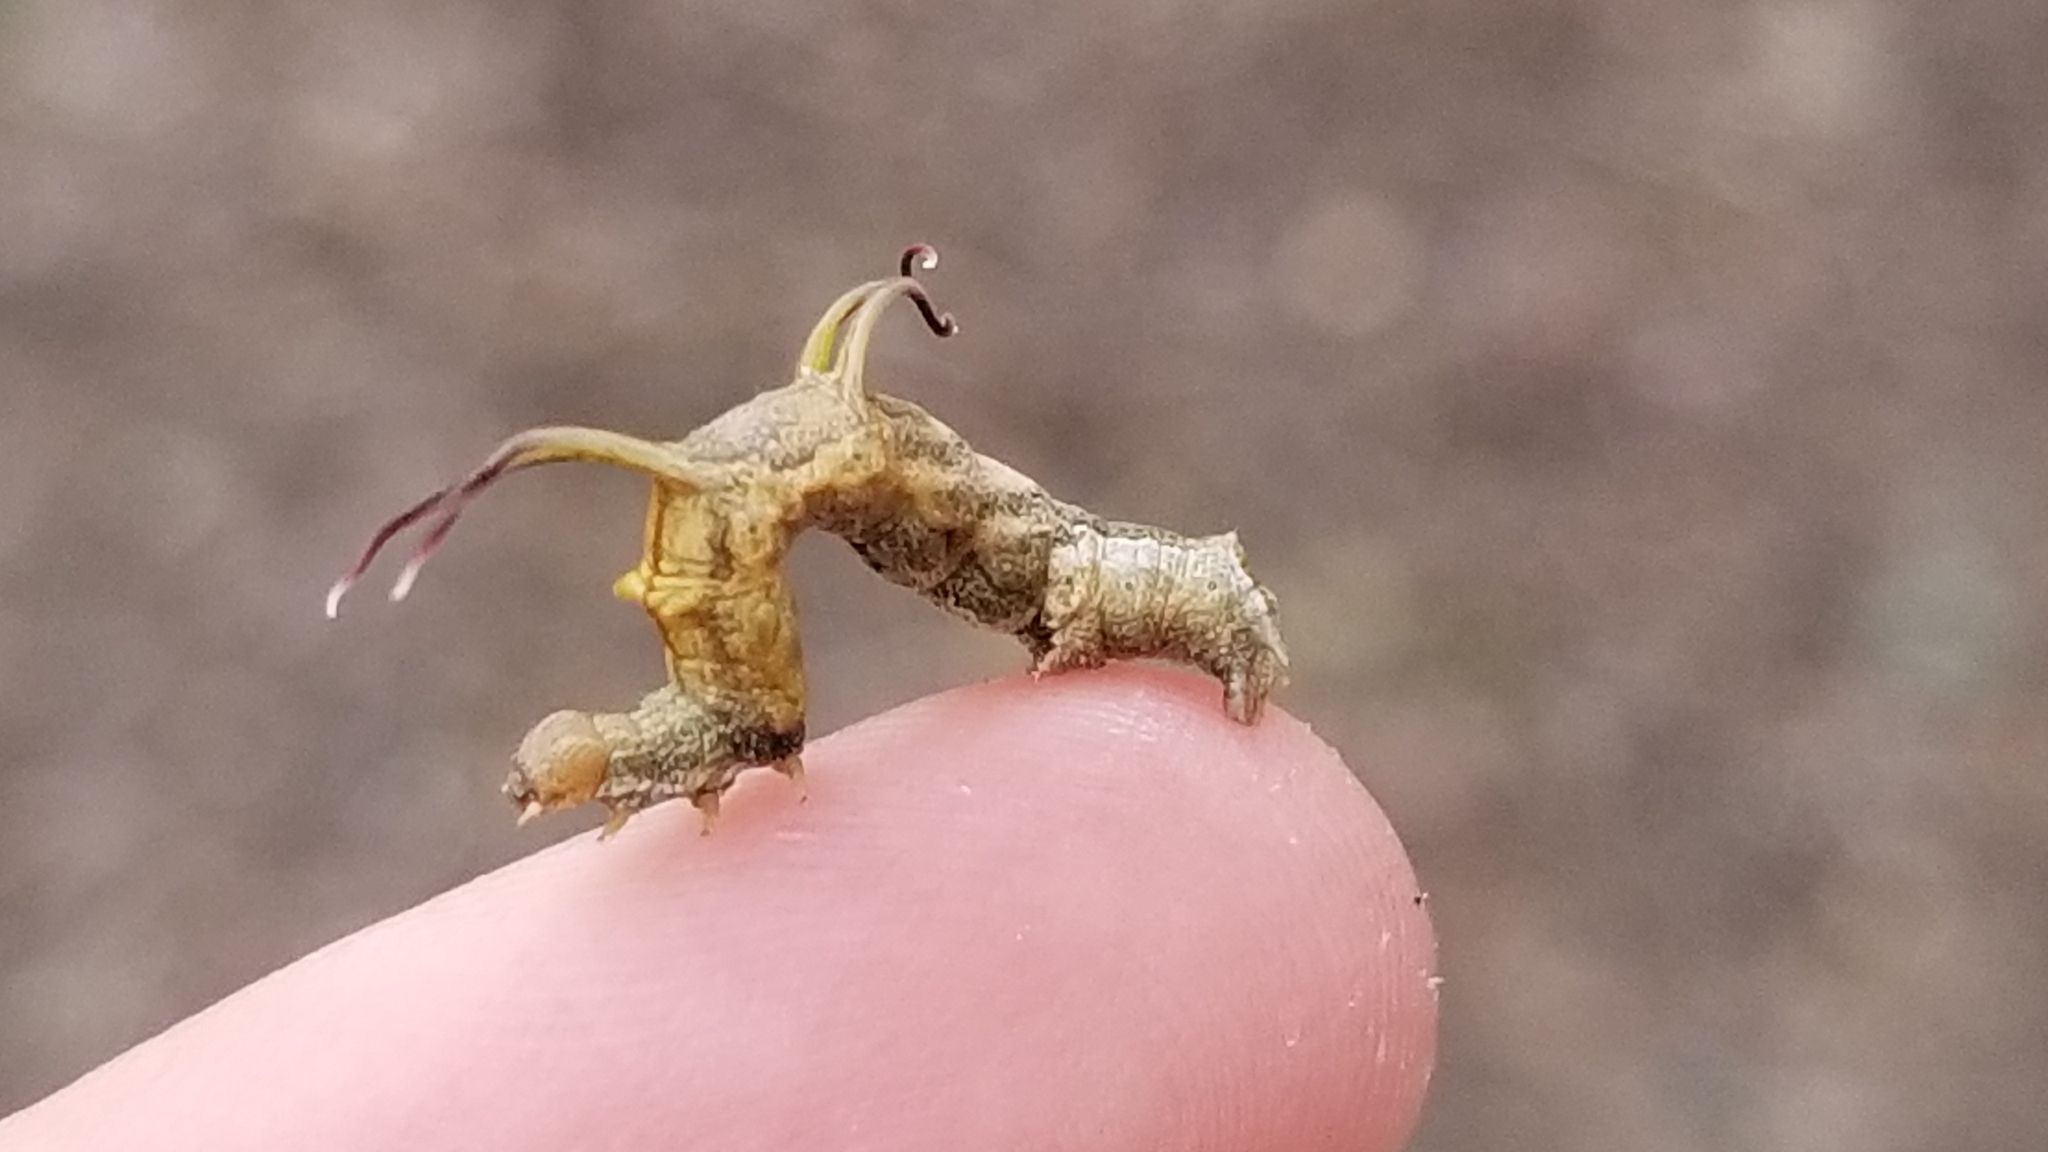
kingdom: Animalia
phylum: Arthropoda
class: Insecta
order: Lepidoptera
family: Geometridae
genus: Nematocampa
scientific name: Nematocampa resistaria
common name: Horned spanworm moth
